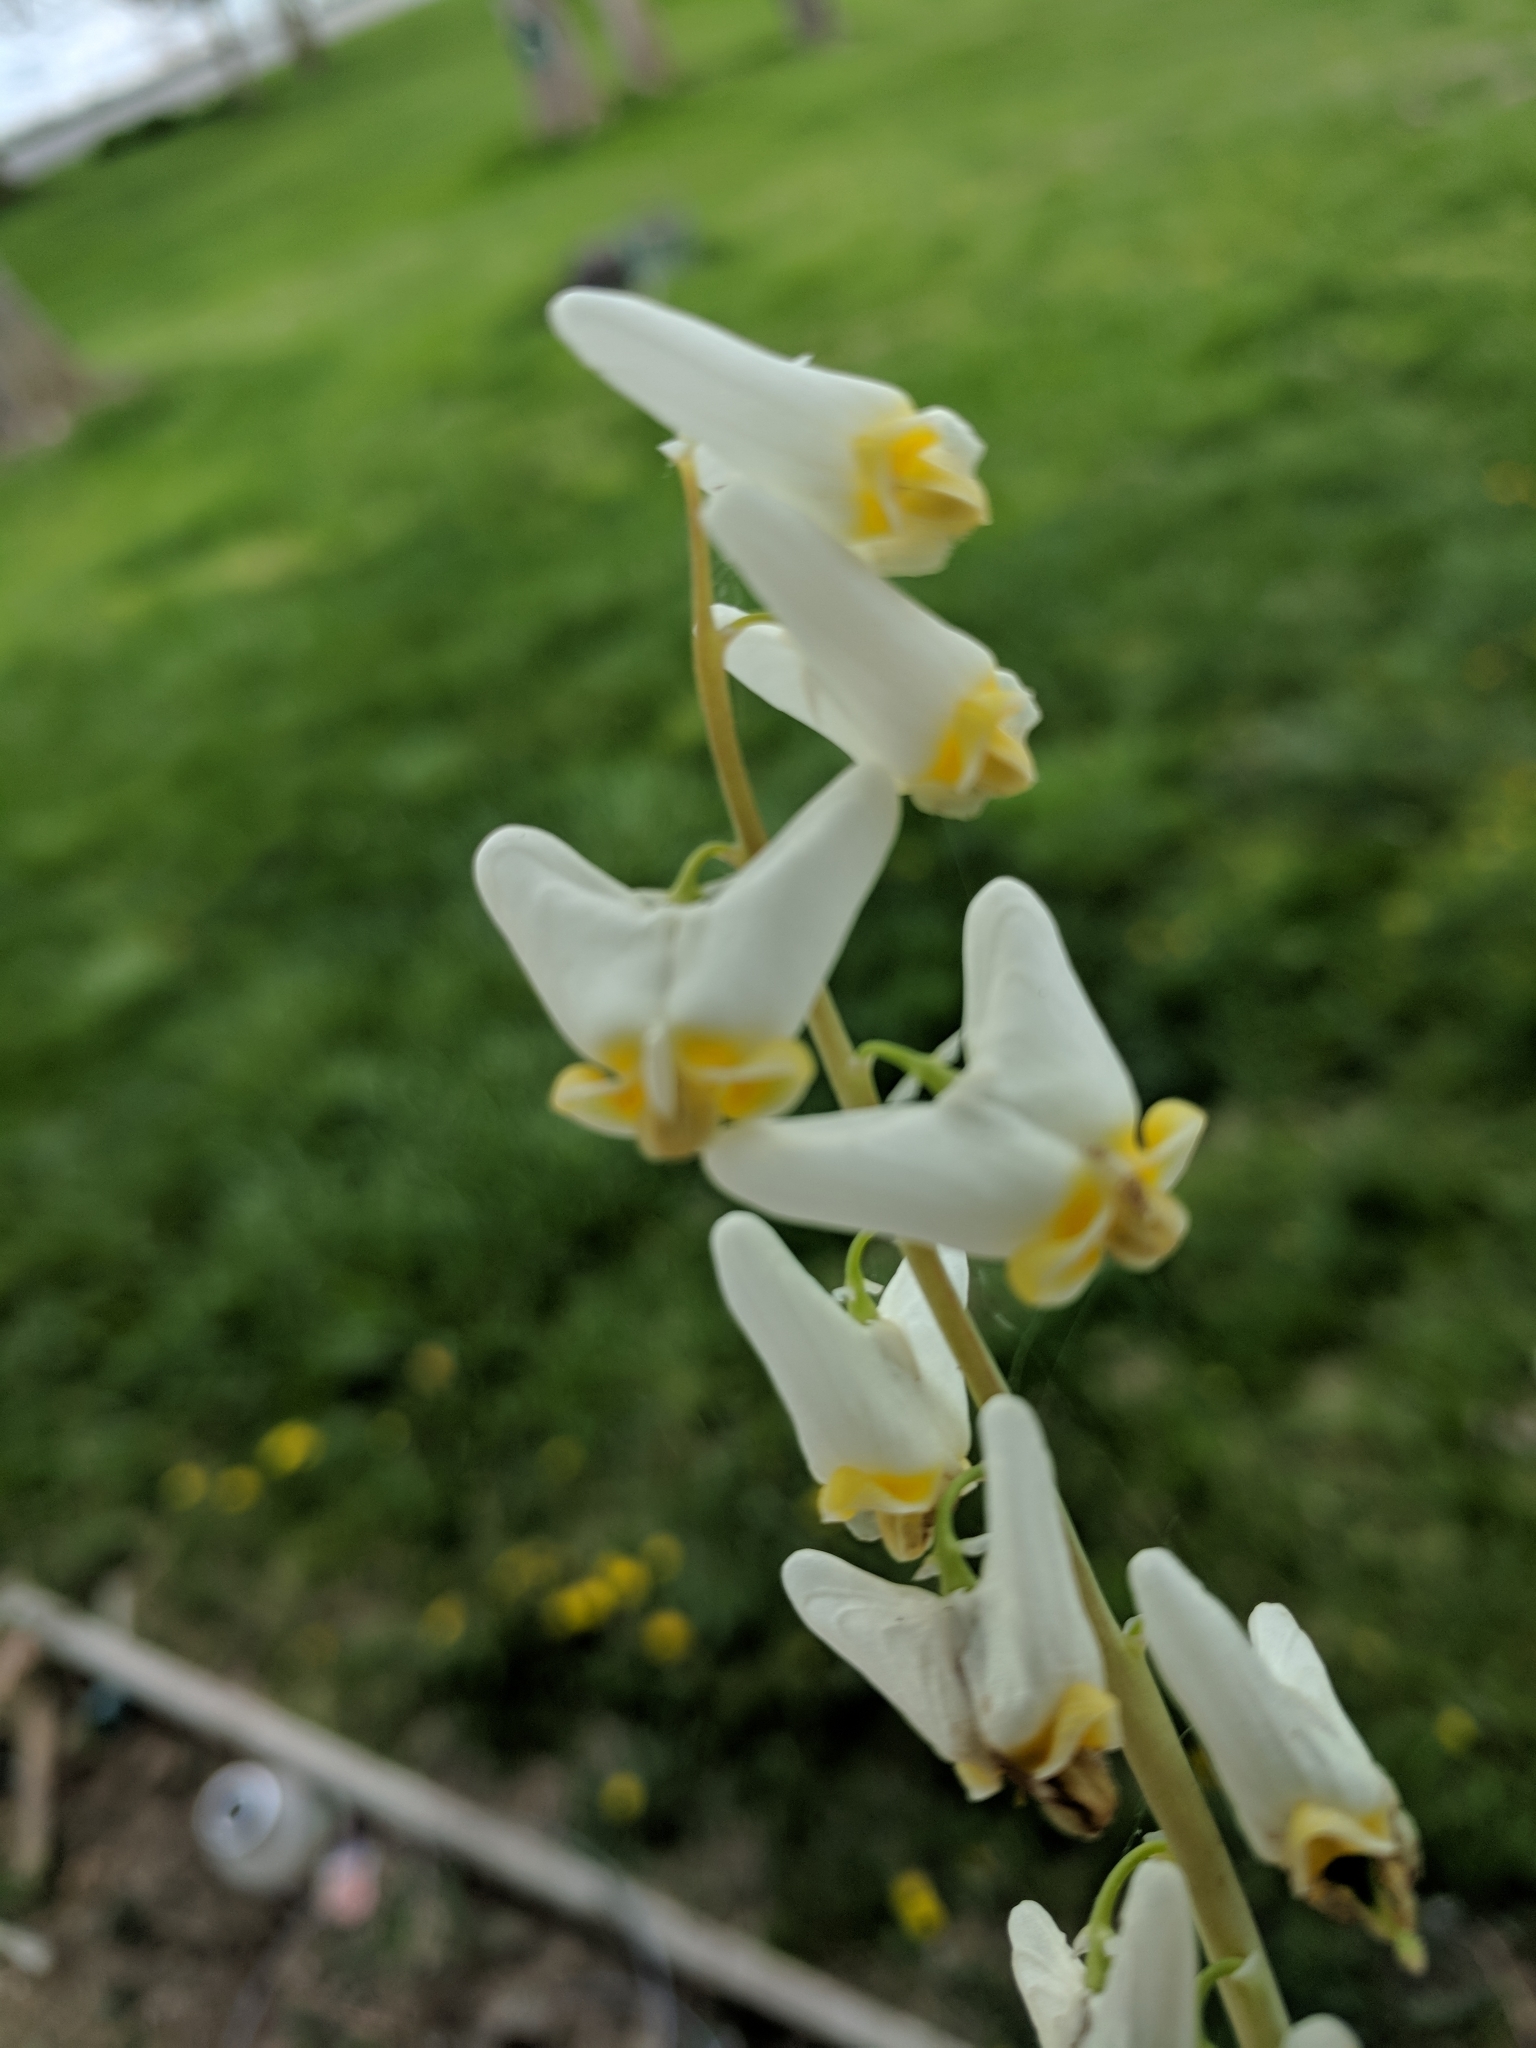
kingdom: Plantae
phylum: Tracheophyta
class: Magnoliopsida
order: Ranunculales
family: Papaveraceae
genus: Dicentra
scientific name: Dicentra cucullaria
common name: Dutchman's breeches
